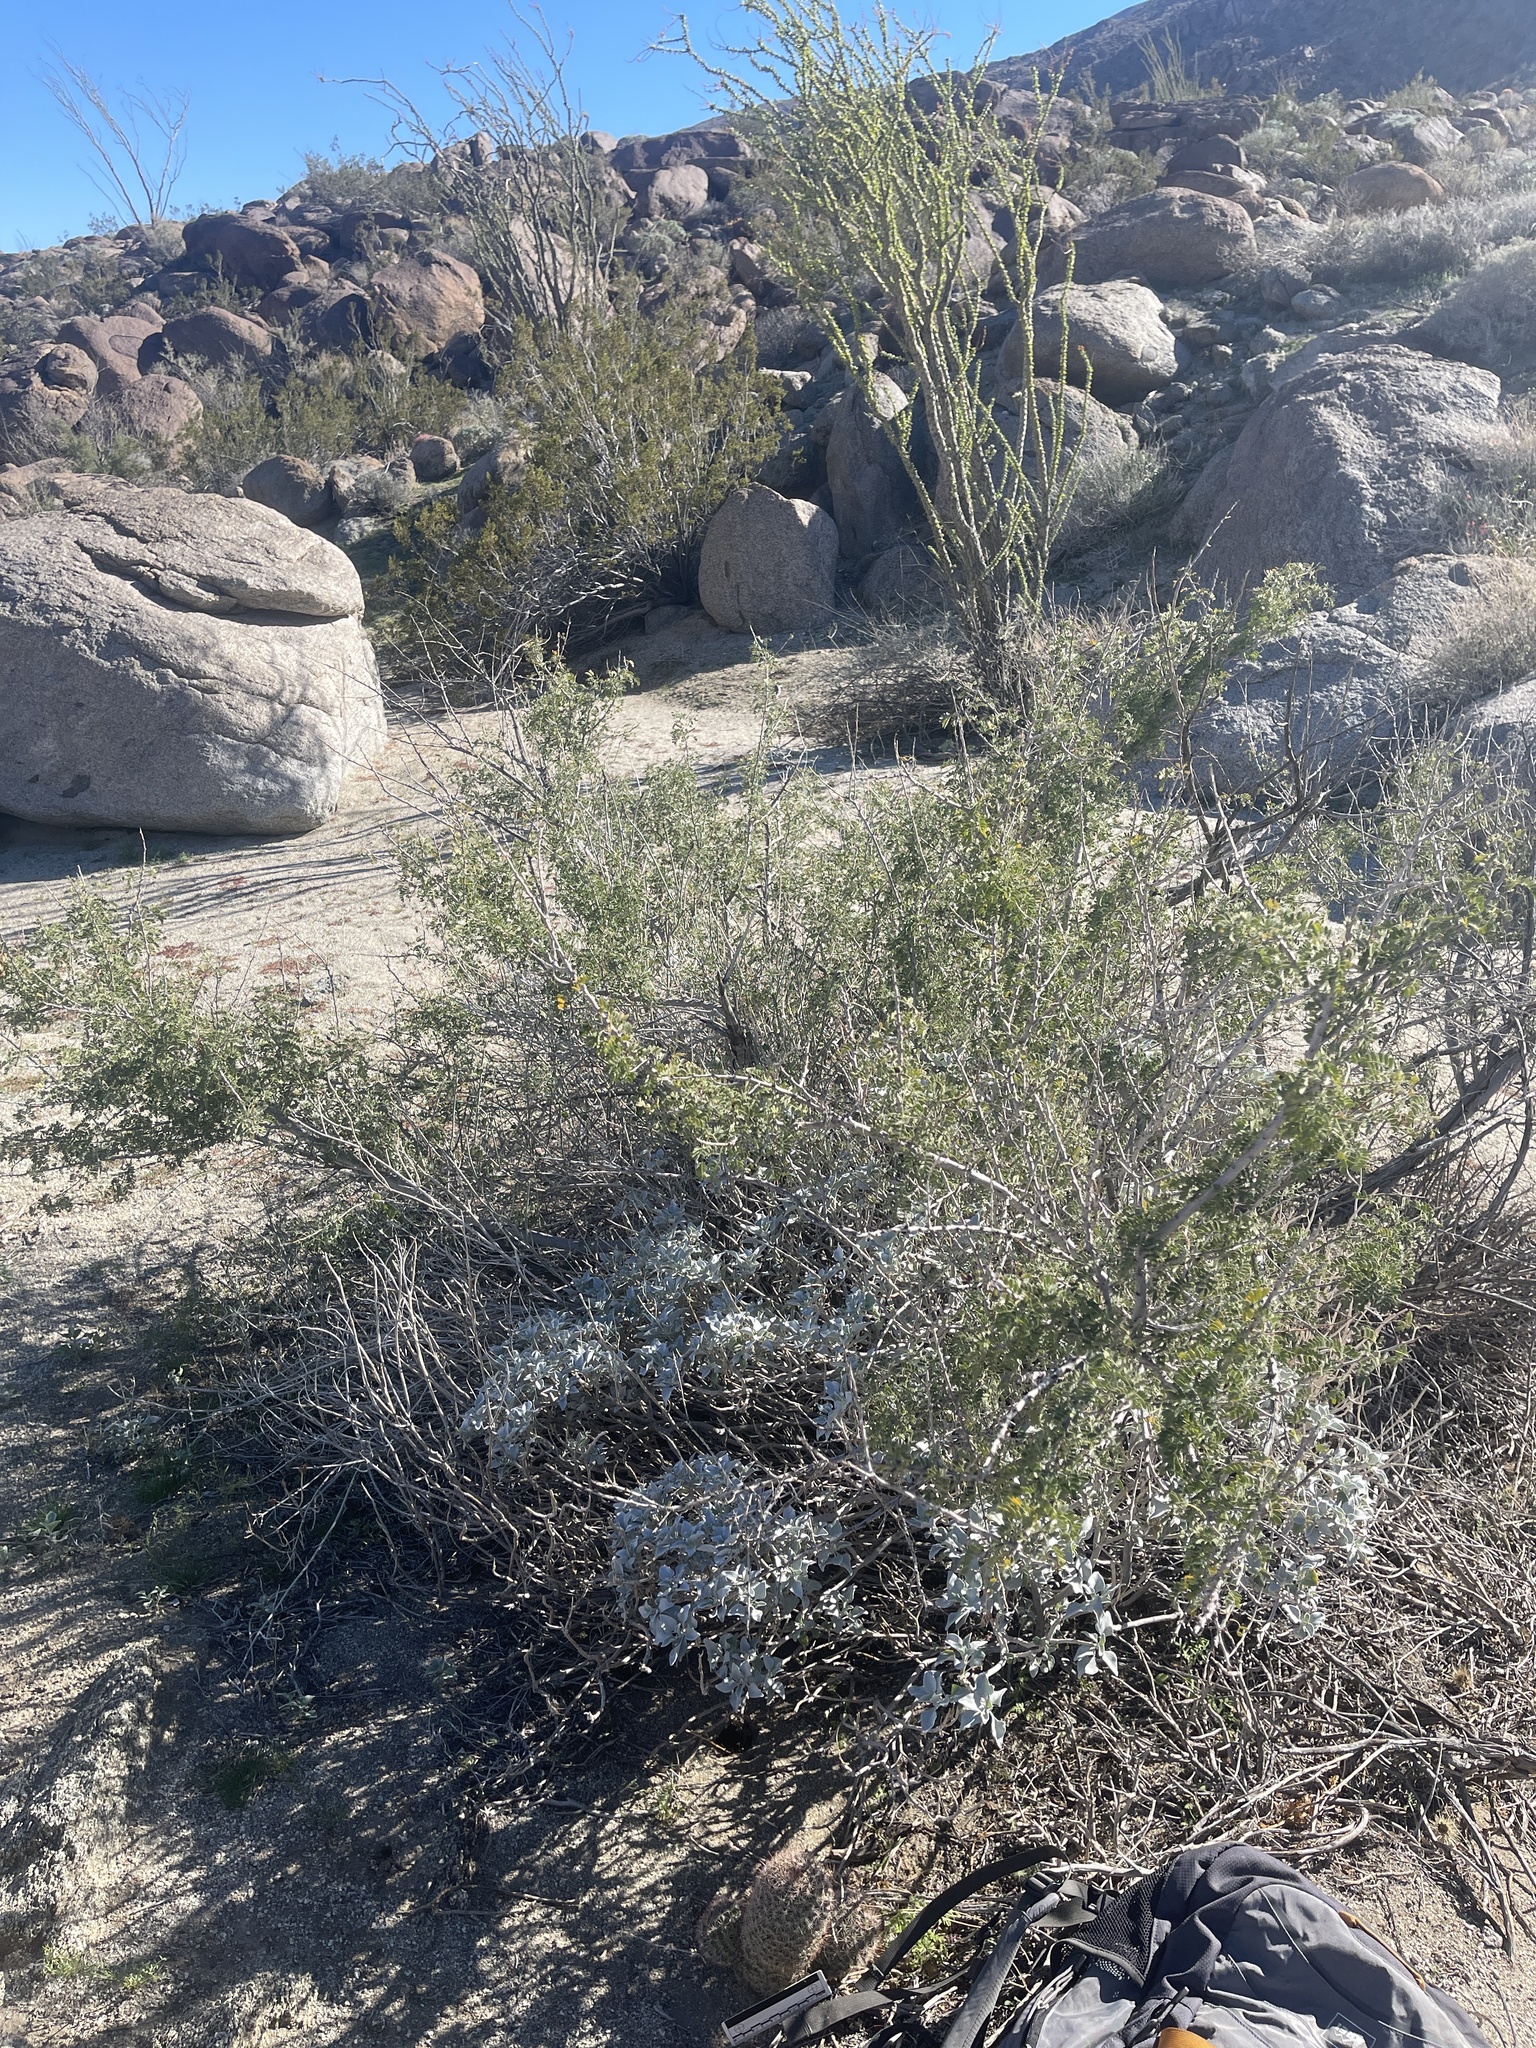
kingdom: Plantae
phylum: Tracheophyta
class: Magnoliopsida
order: Caryophyllales
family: Cactaceae
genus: Cochemiea
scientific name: Cochemiea dioica
